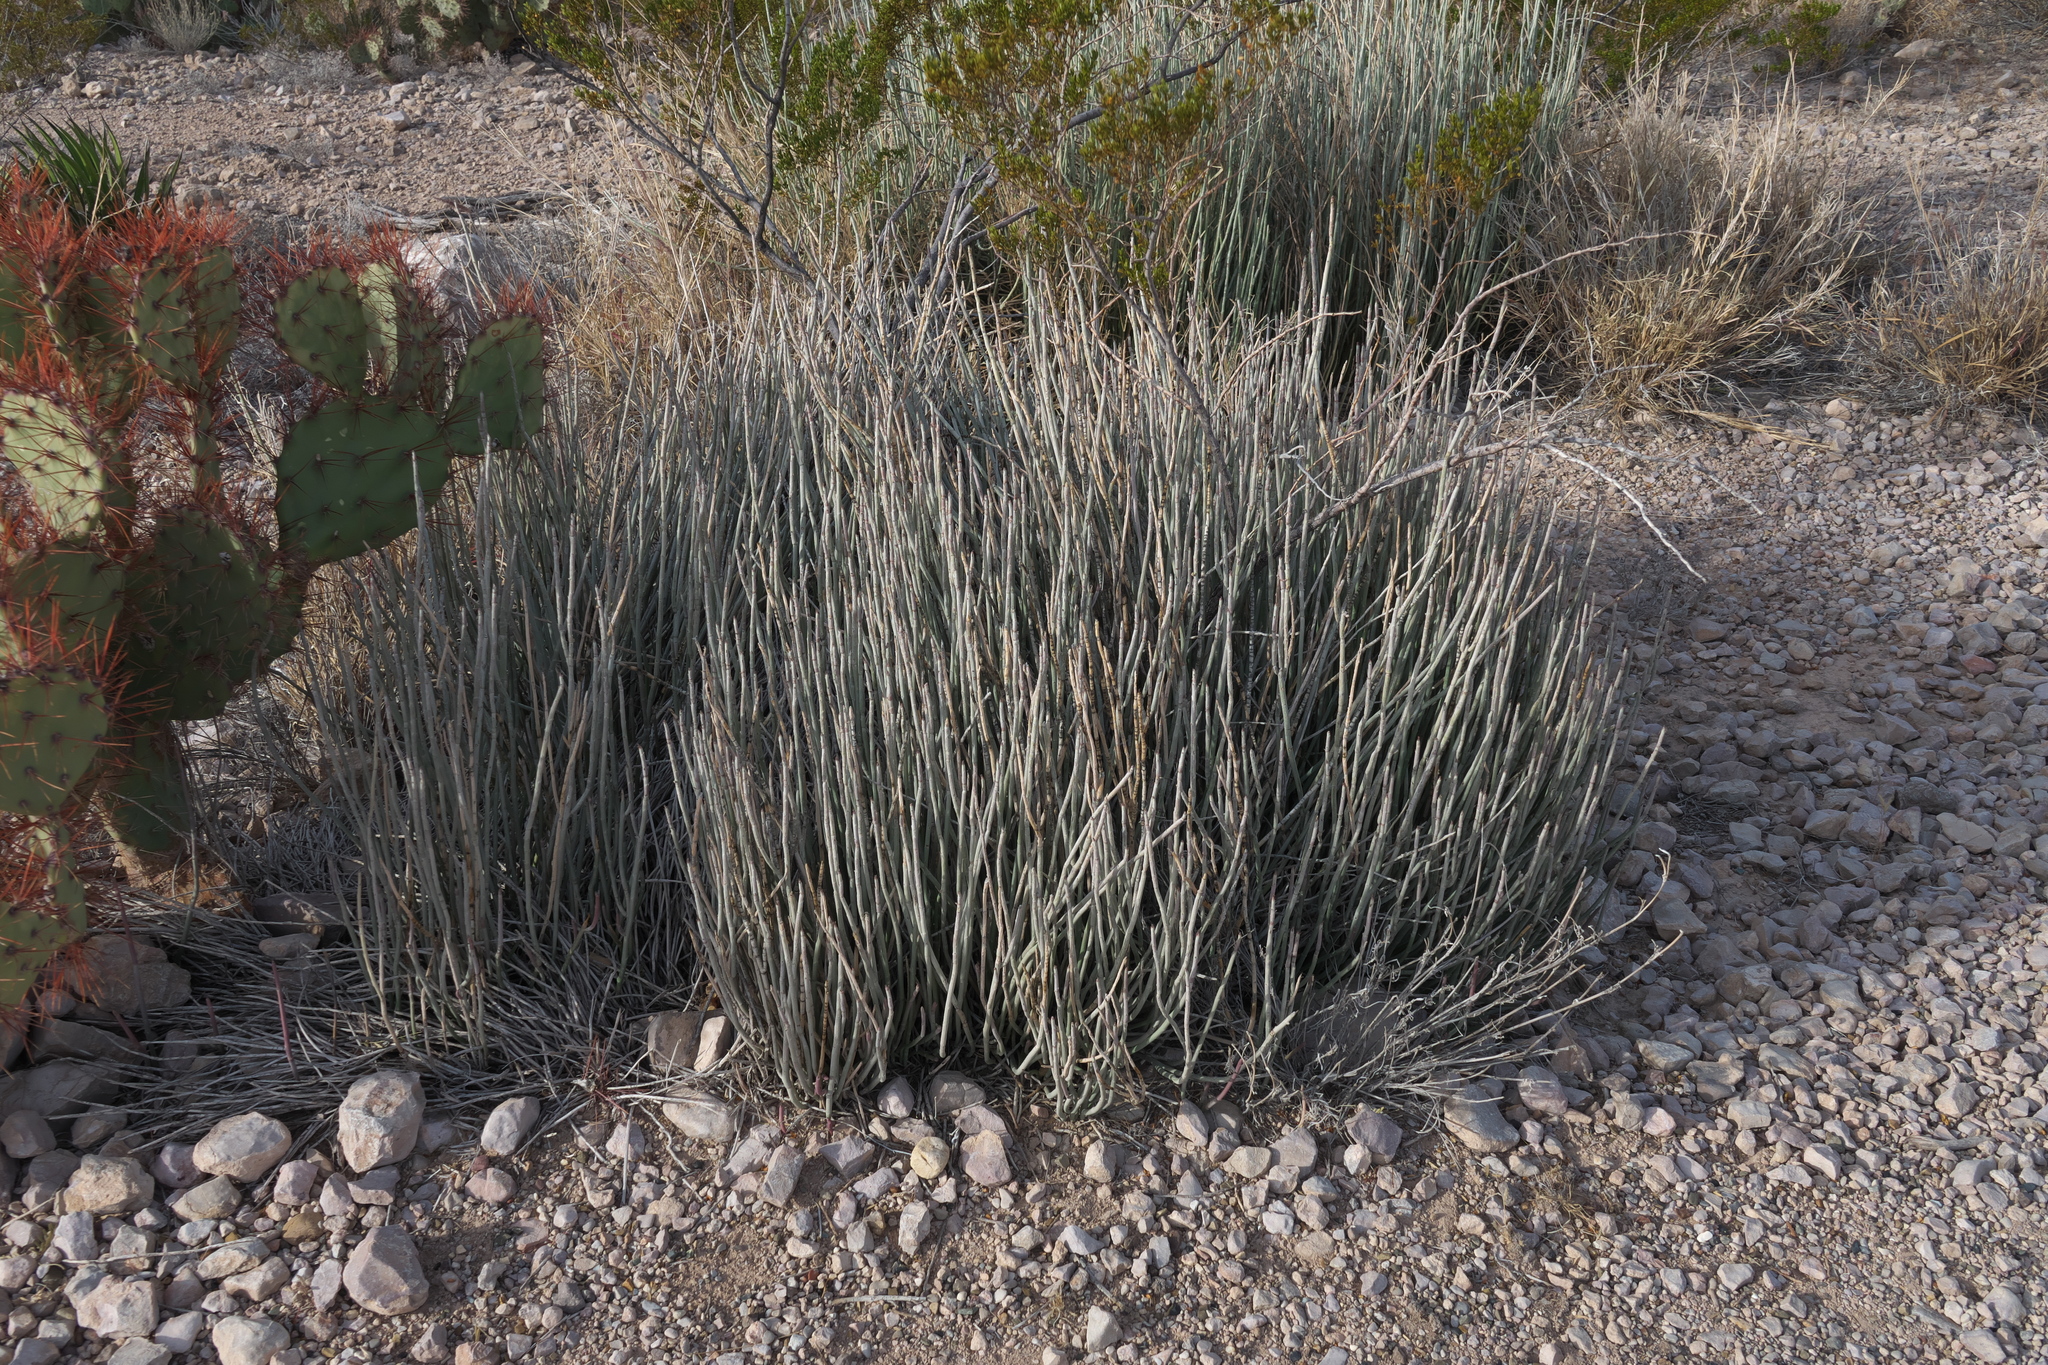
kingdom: Plantae
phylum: Tracheophyta
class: Magnoliopsida
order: Malpighiales
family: Euphorbiaceae
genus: Euphorbia
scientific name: Euphorbia antisyphilitica
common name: Candelilla
